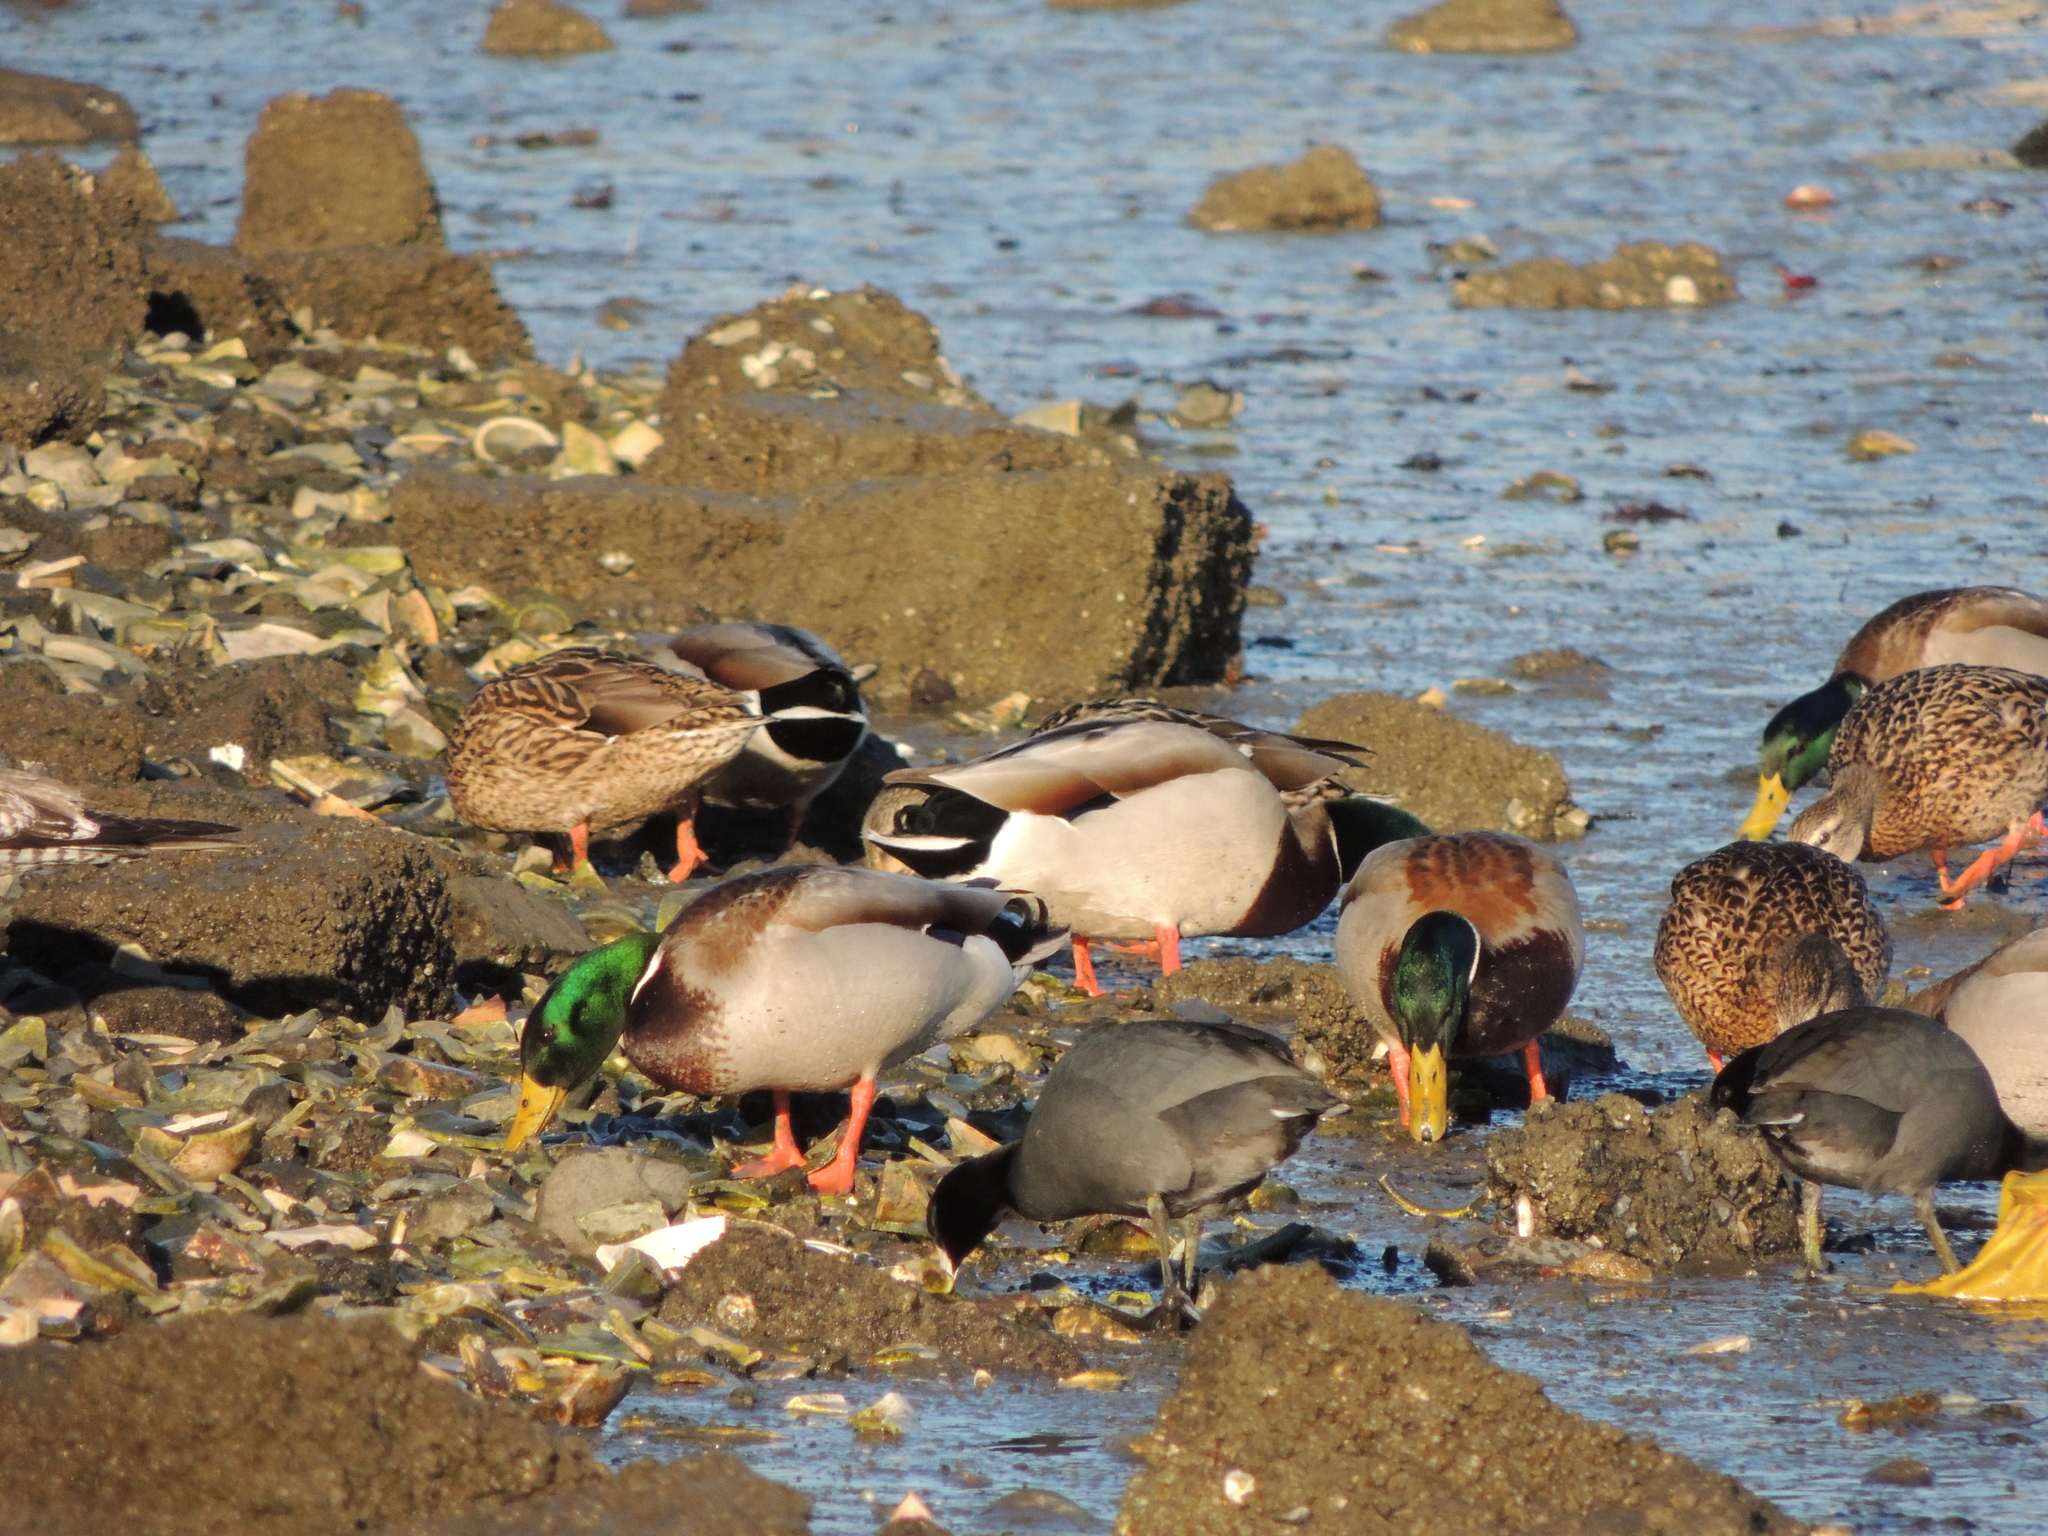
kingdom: Animalia
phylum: Chordata
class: Aves
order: Anseriformes
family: Anatidae
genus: Anas
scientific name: Anas platyrhynchos
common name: Mallard
